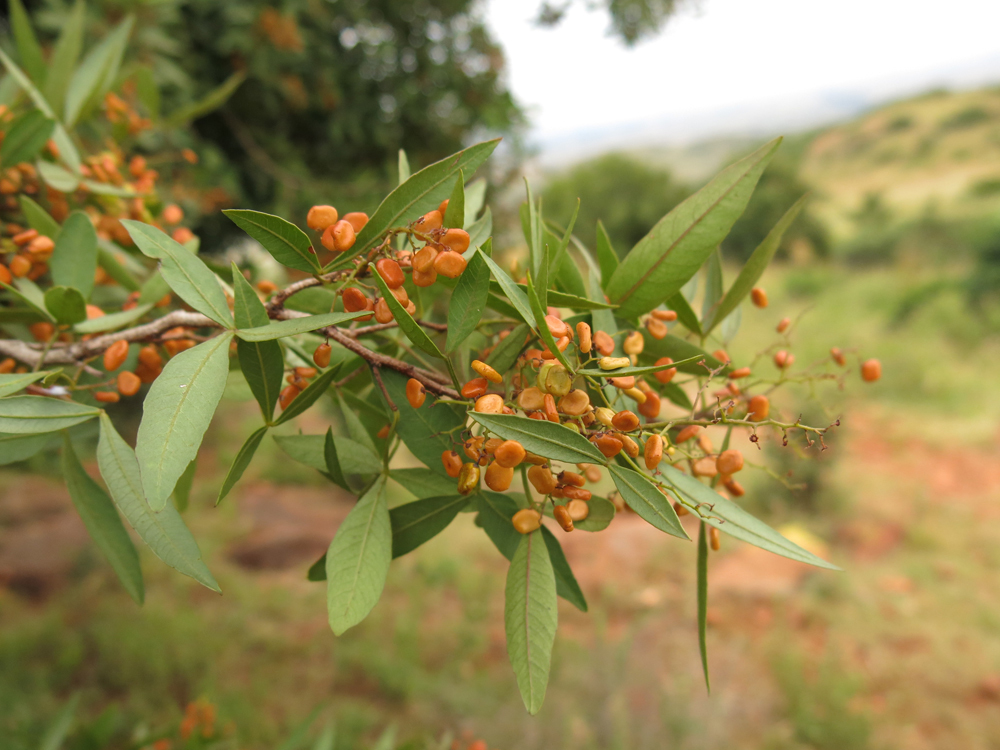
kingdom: Plantae
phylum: Tracheophyta
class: Magnoliopsida
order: Sapindales
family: Anacardiaceae
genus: Searsia
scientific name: Searsia leptodictya
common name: Mountain karee
